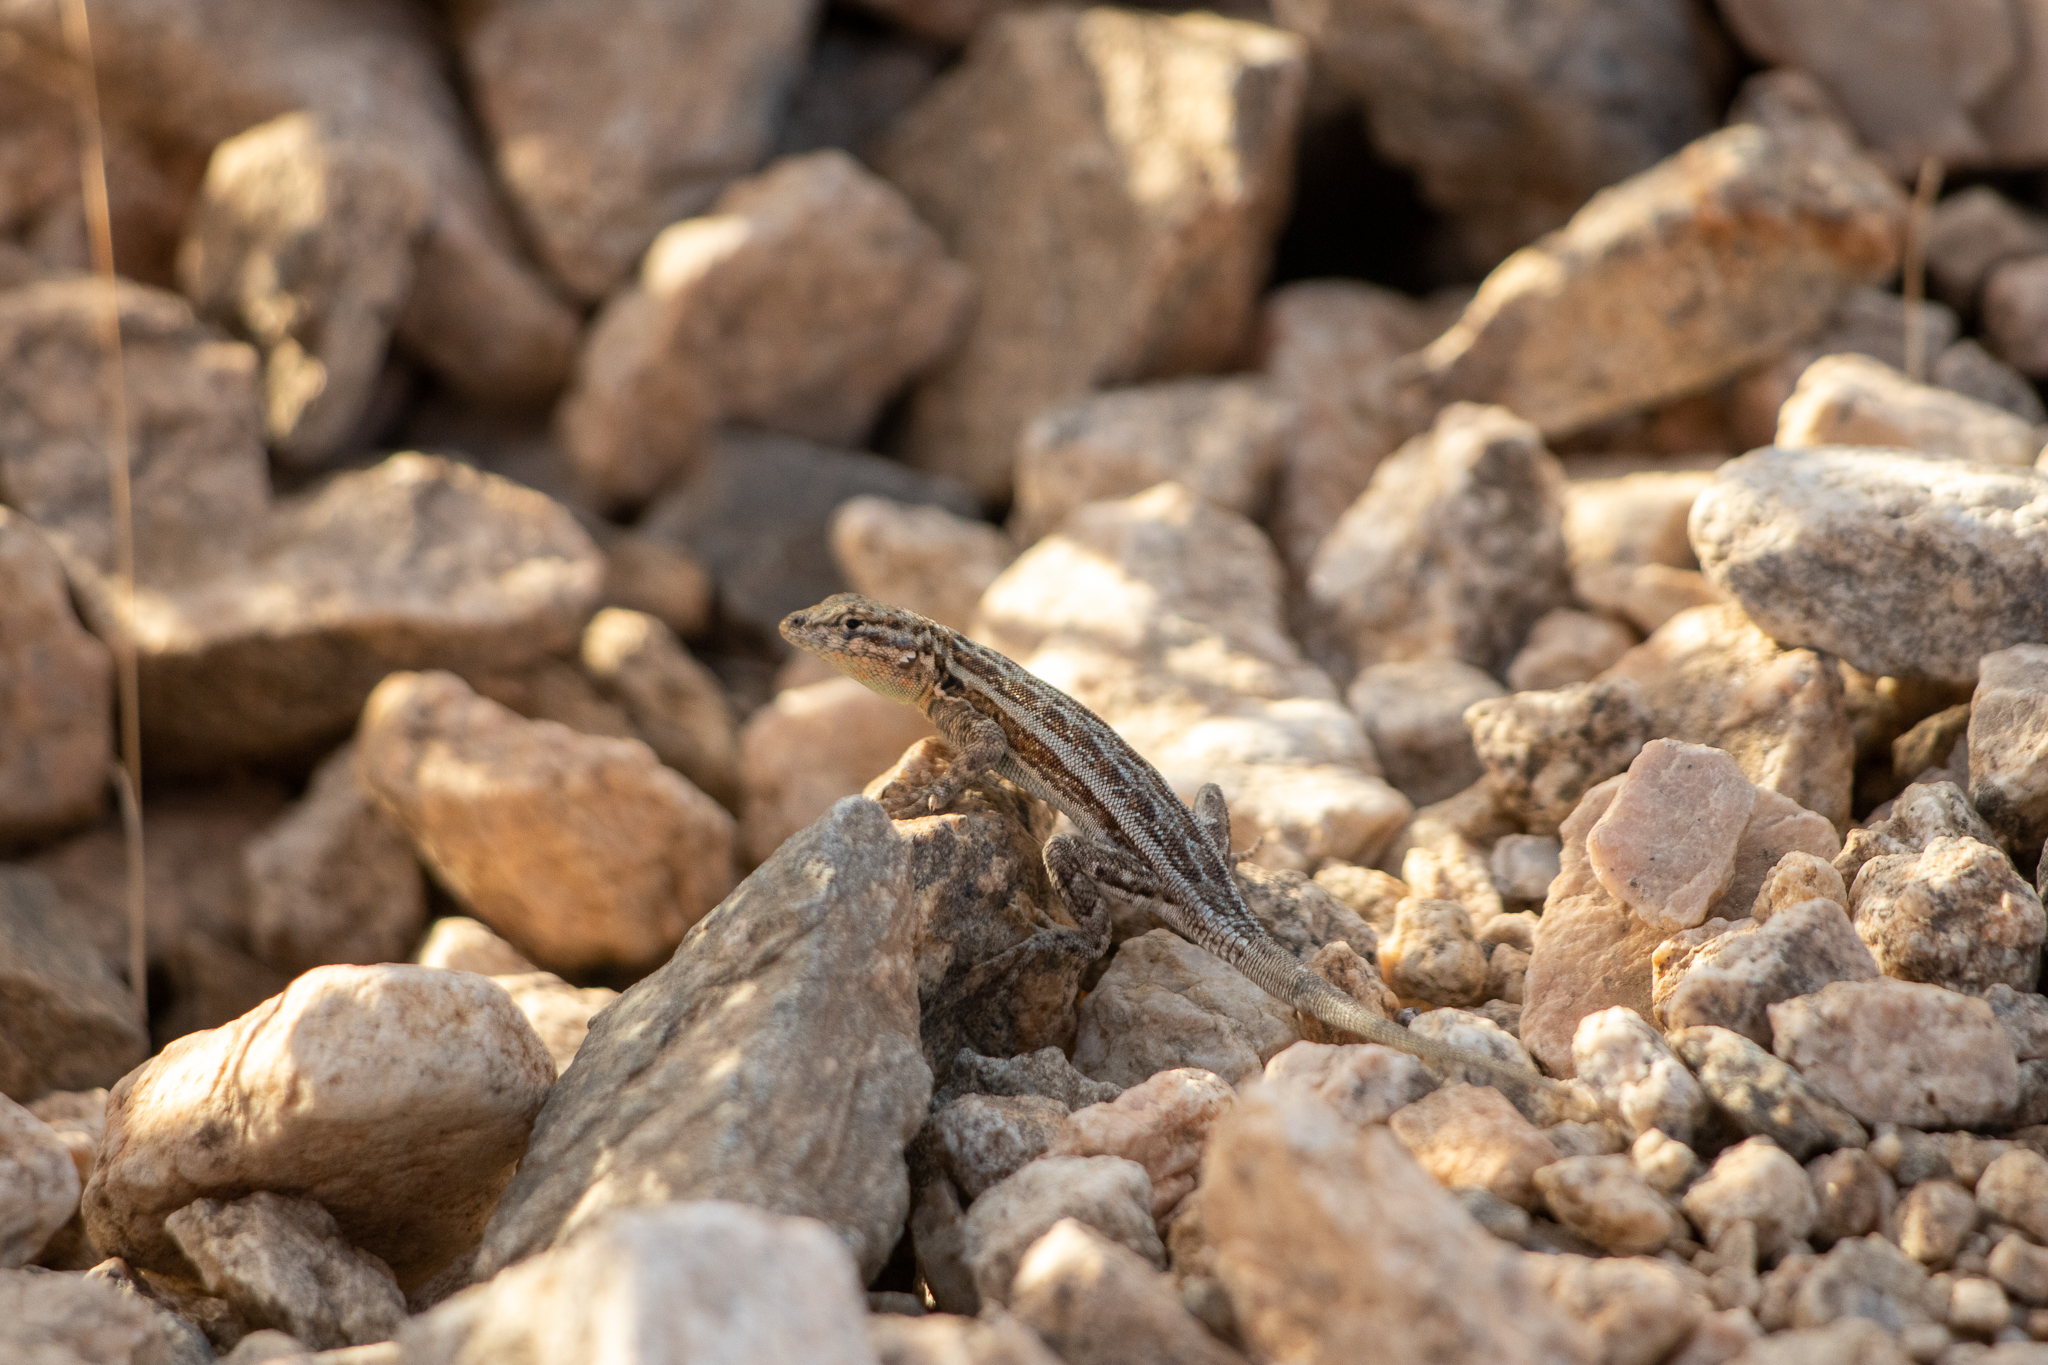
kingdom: Animalia
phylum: Chordata
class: Squamata
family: Phrynosomatidae
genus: Uta
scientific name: Uta stansburiana
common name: Side-blotched lizard
